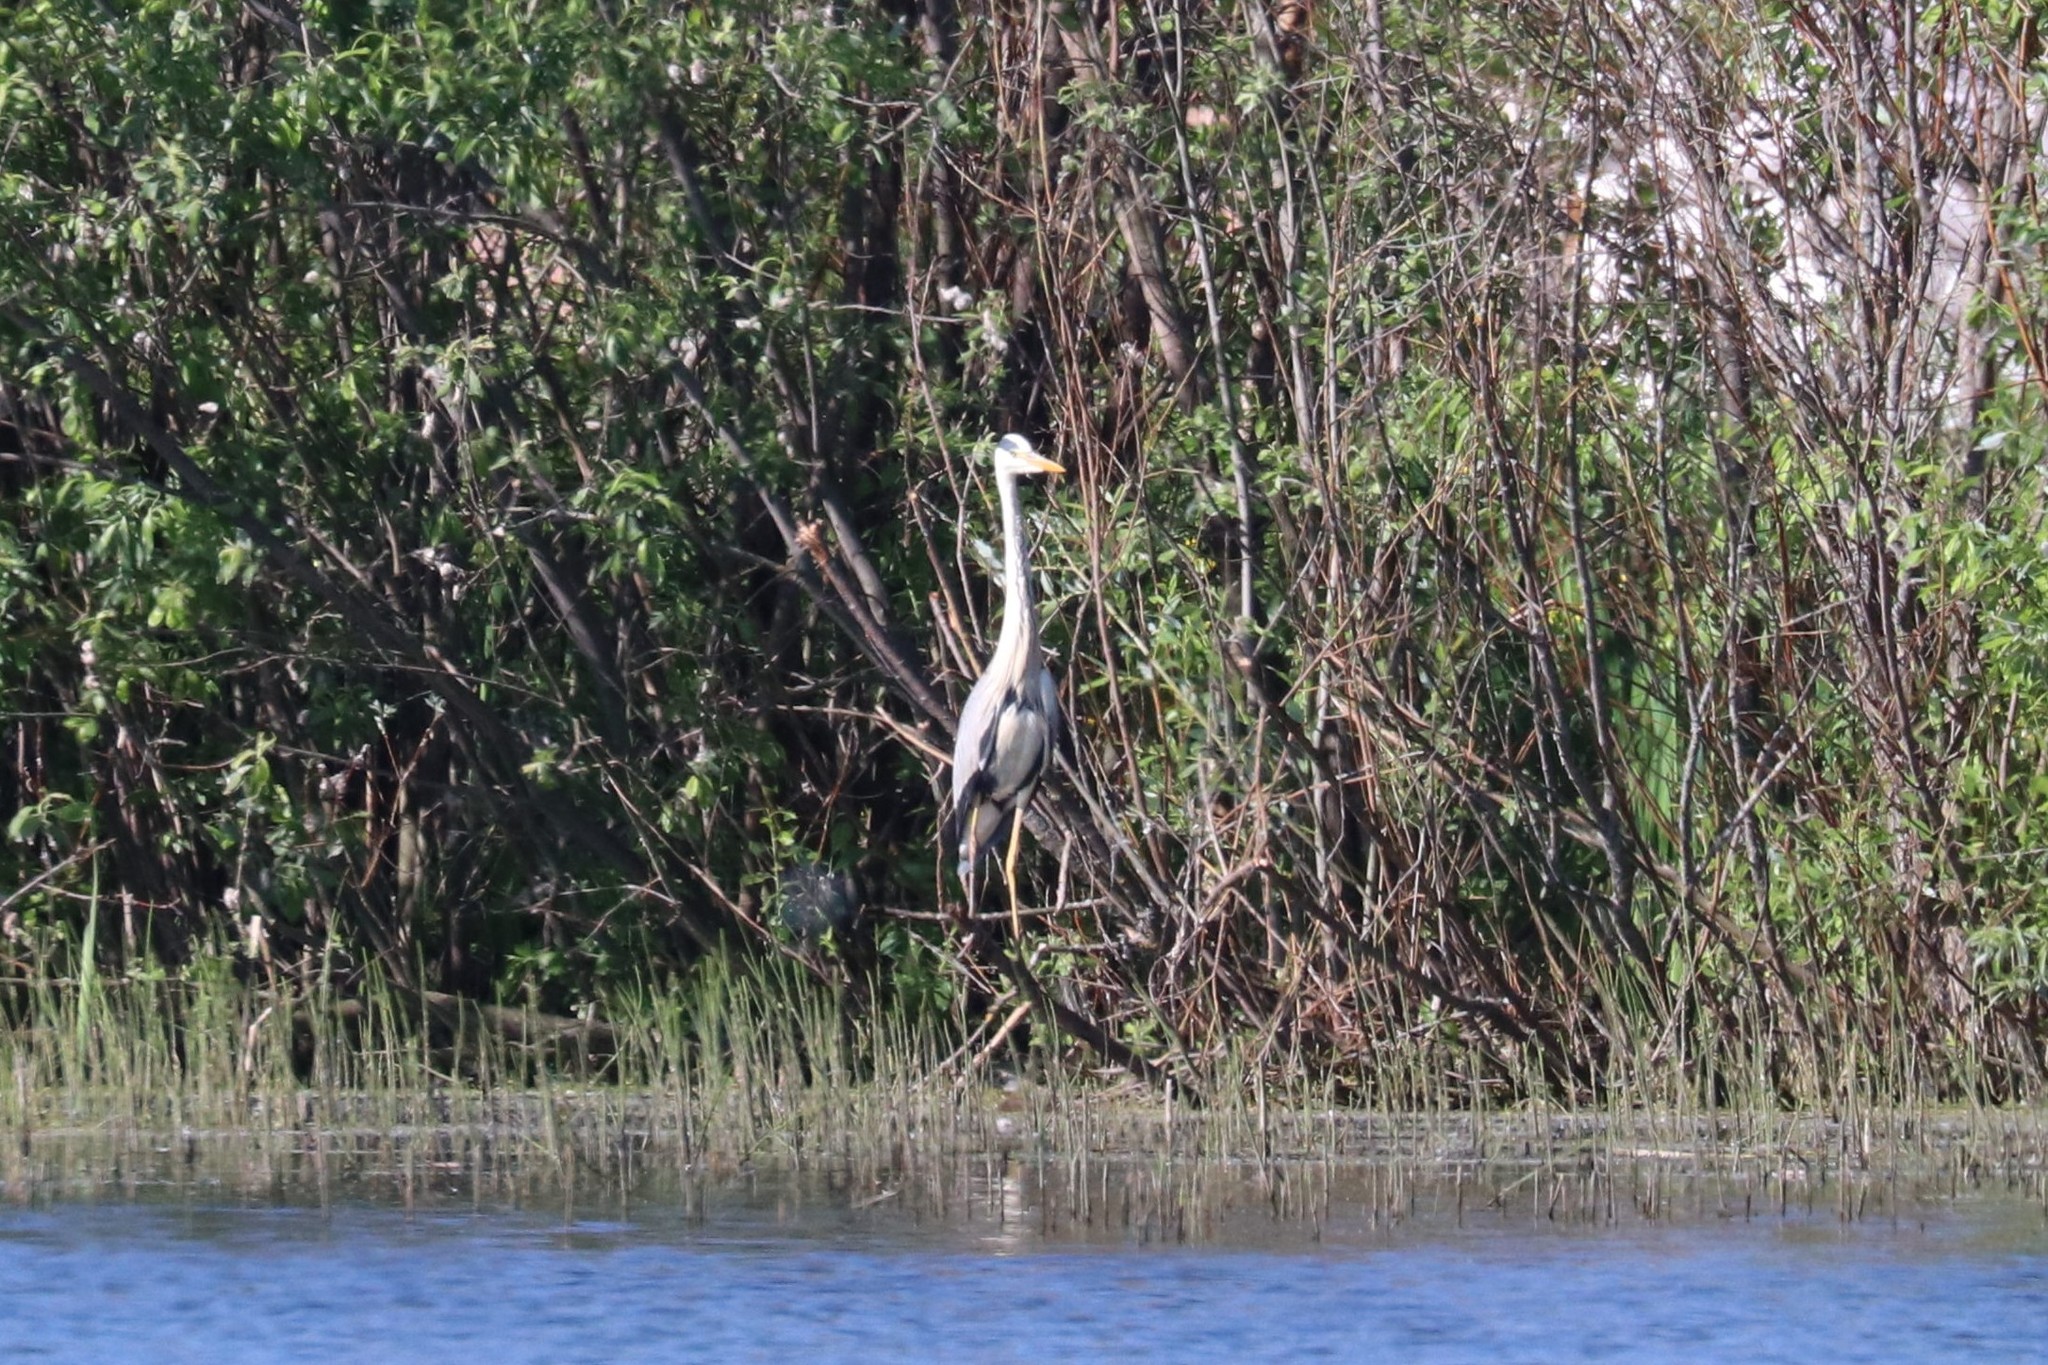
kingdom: Animalia
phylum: Chordata
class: Aves
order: Pelecaniformes
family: Ardeidae
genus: Ardea
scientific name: Ardea cinerea
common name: Grey heron
